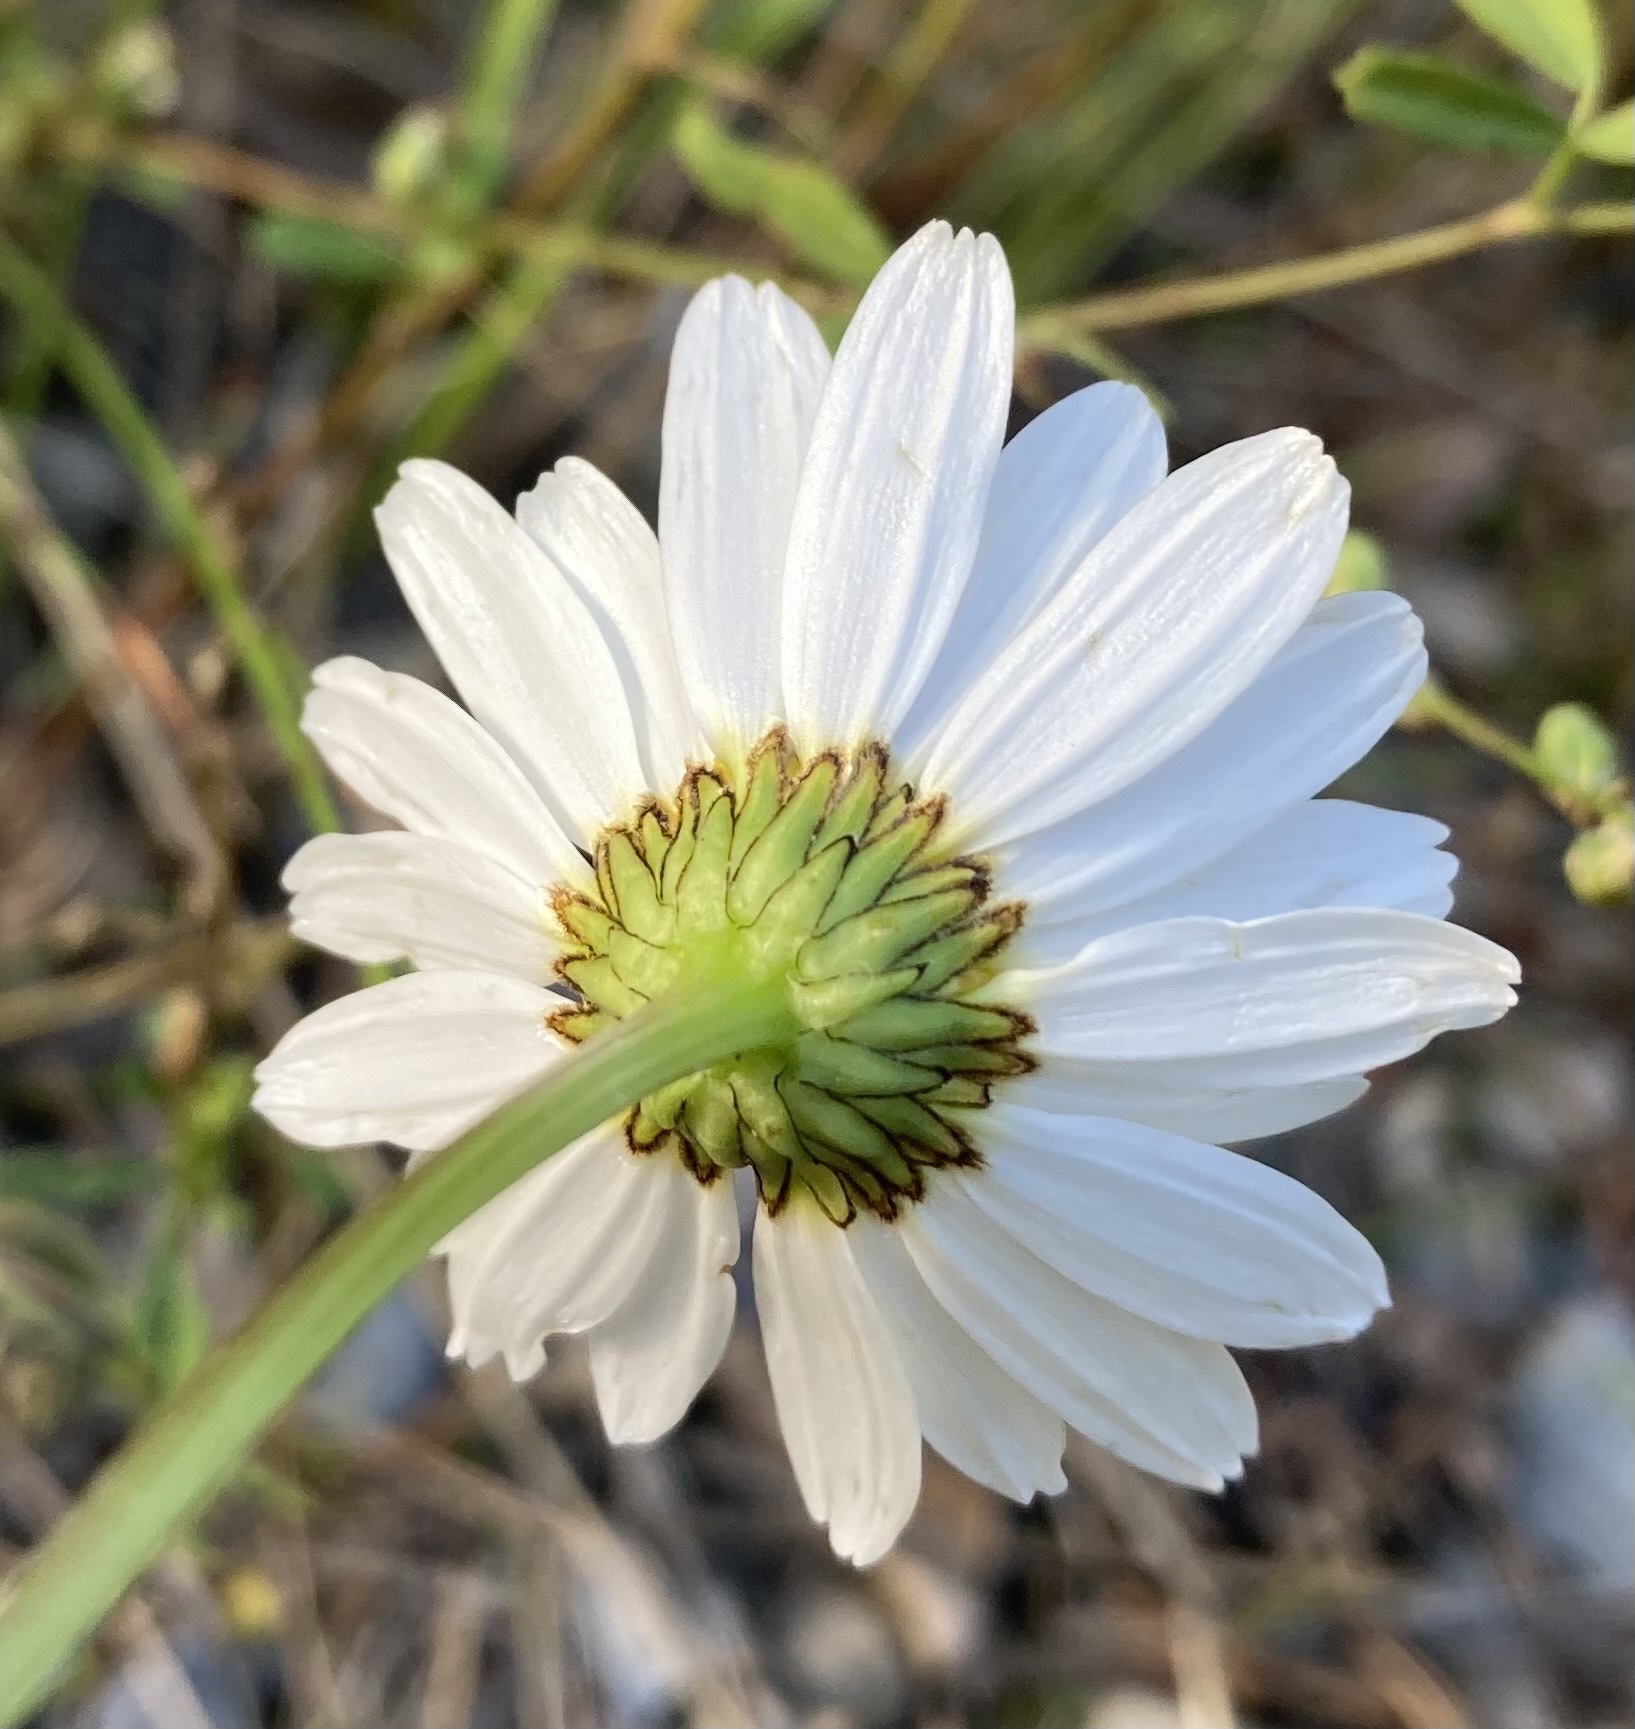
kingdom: Plantae
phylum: Tracheophyta
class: Magnoliopsida
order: Asterales
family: Asteraceae
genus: Leucanthemum
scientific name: Leucanthemum vulgare
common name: Oxeye daisy
